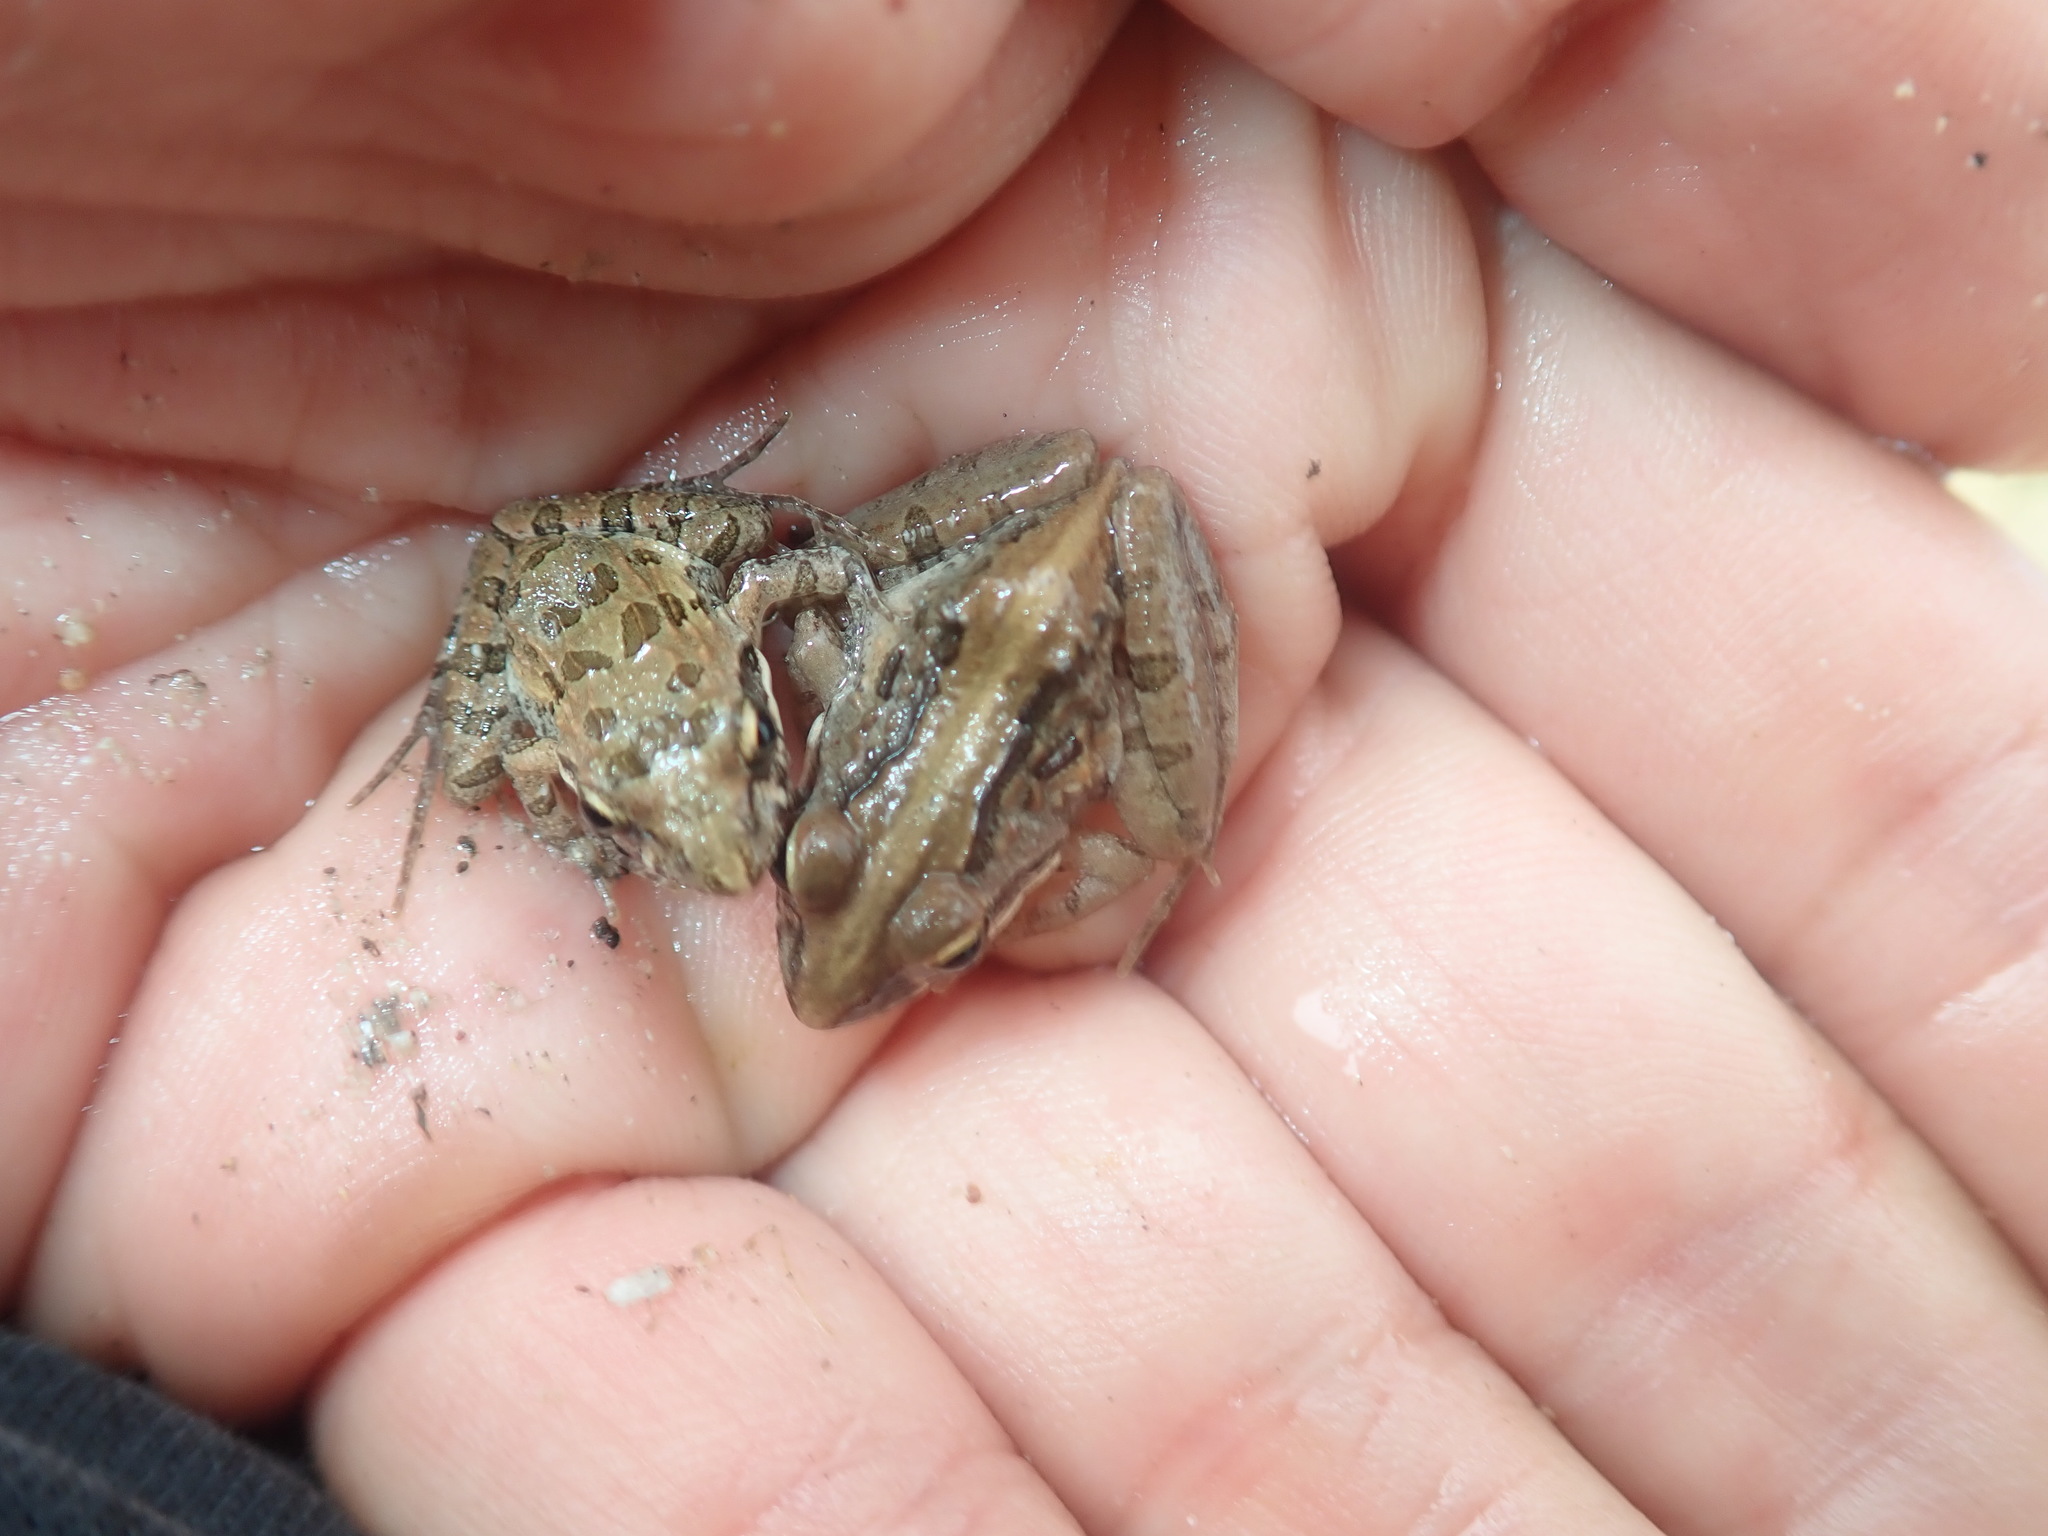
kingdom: Animalia
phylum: Chordata
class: Amphibia
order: Anura
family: Pyxicephalidae
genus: Strongylopus
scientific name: Strongylopus grayii
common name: Gray's stream frog
